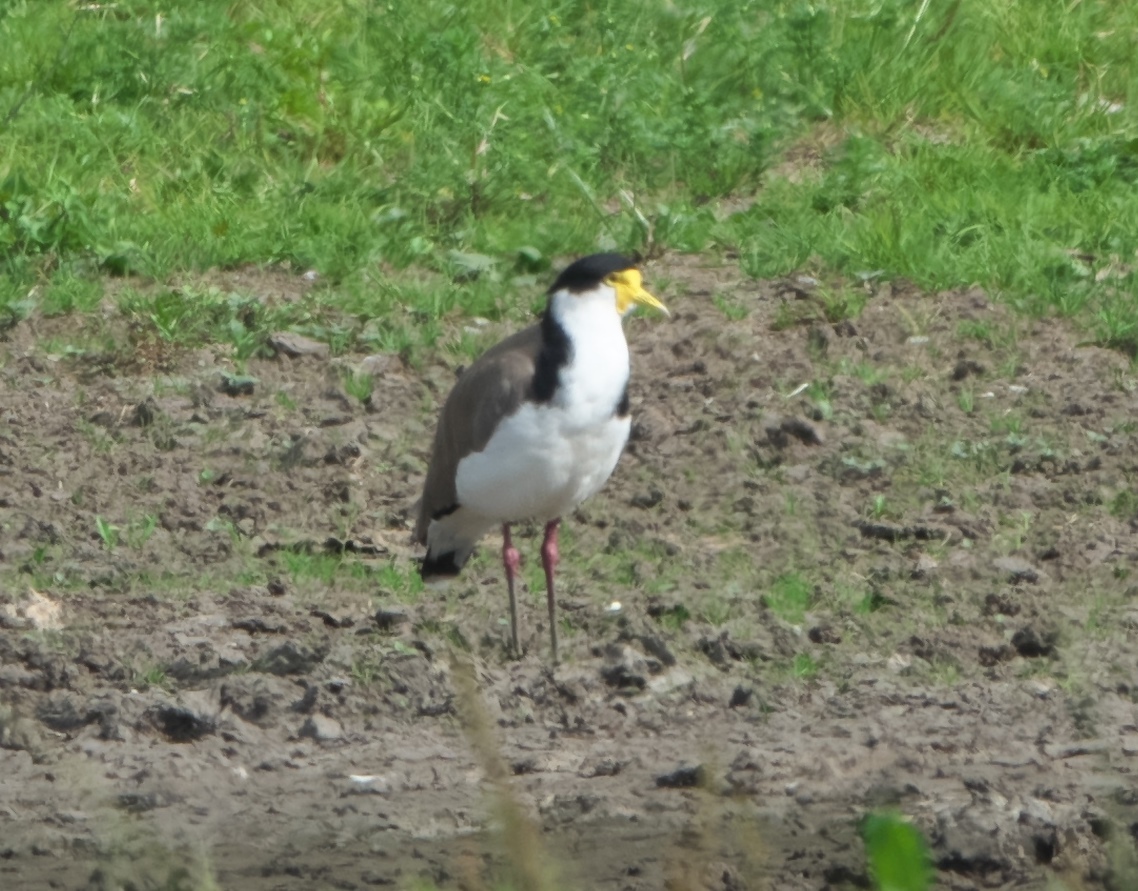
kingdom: Animalia
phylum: Chordata
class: Aves
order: Charadriiformes
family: Charadriidae
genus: Vanellus
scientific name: Vanellus miles
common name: Masked lapwing
